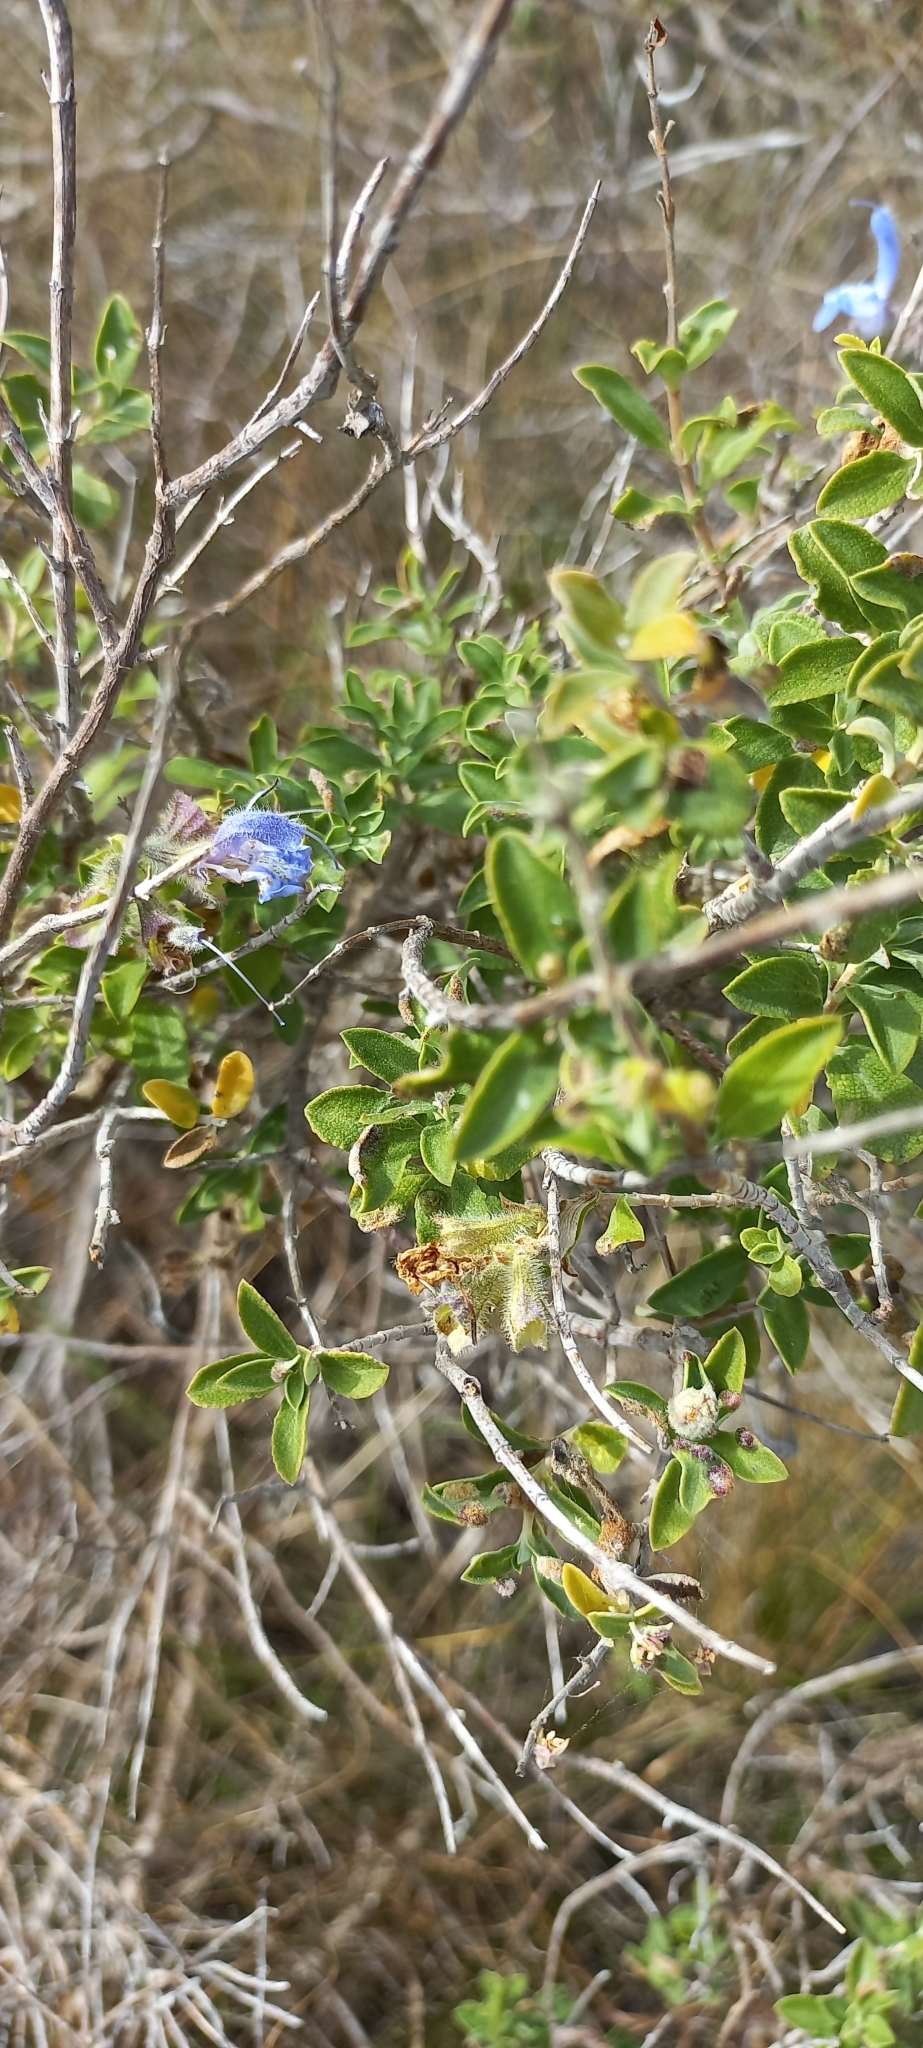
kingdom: Plantae
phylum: Tracheophyta
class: Magnoliopsida
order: Lamiales
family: Lamiaceae
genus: Salvia
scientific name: Salvia africana
